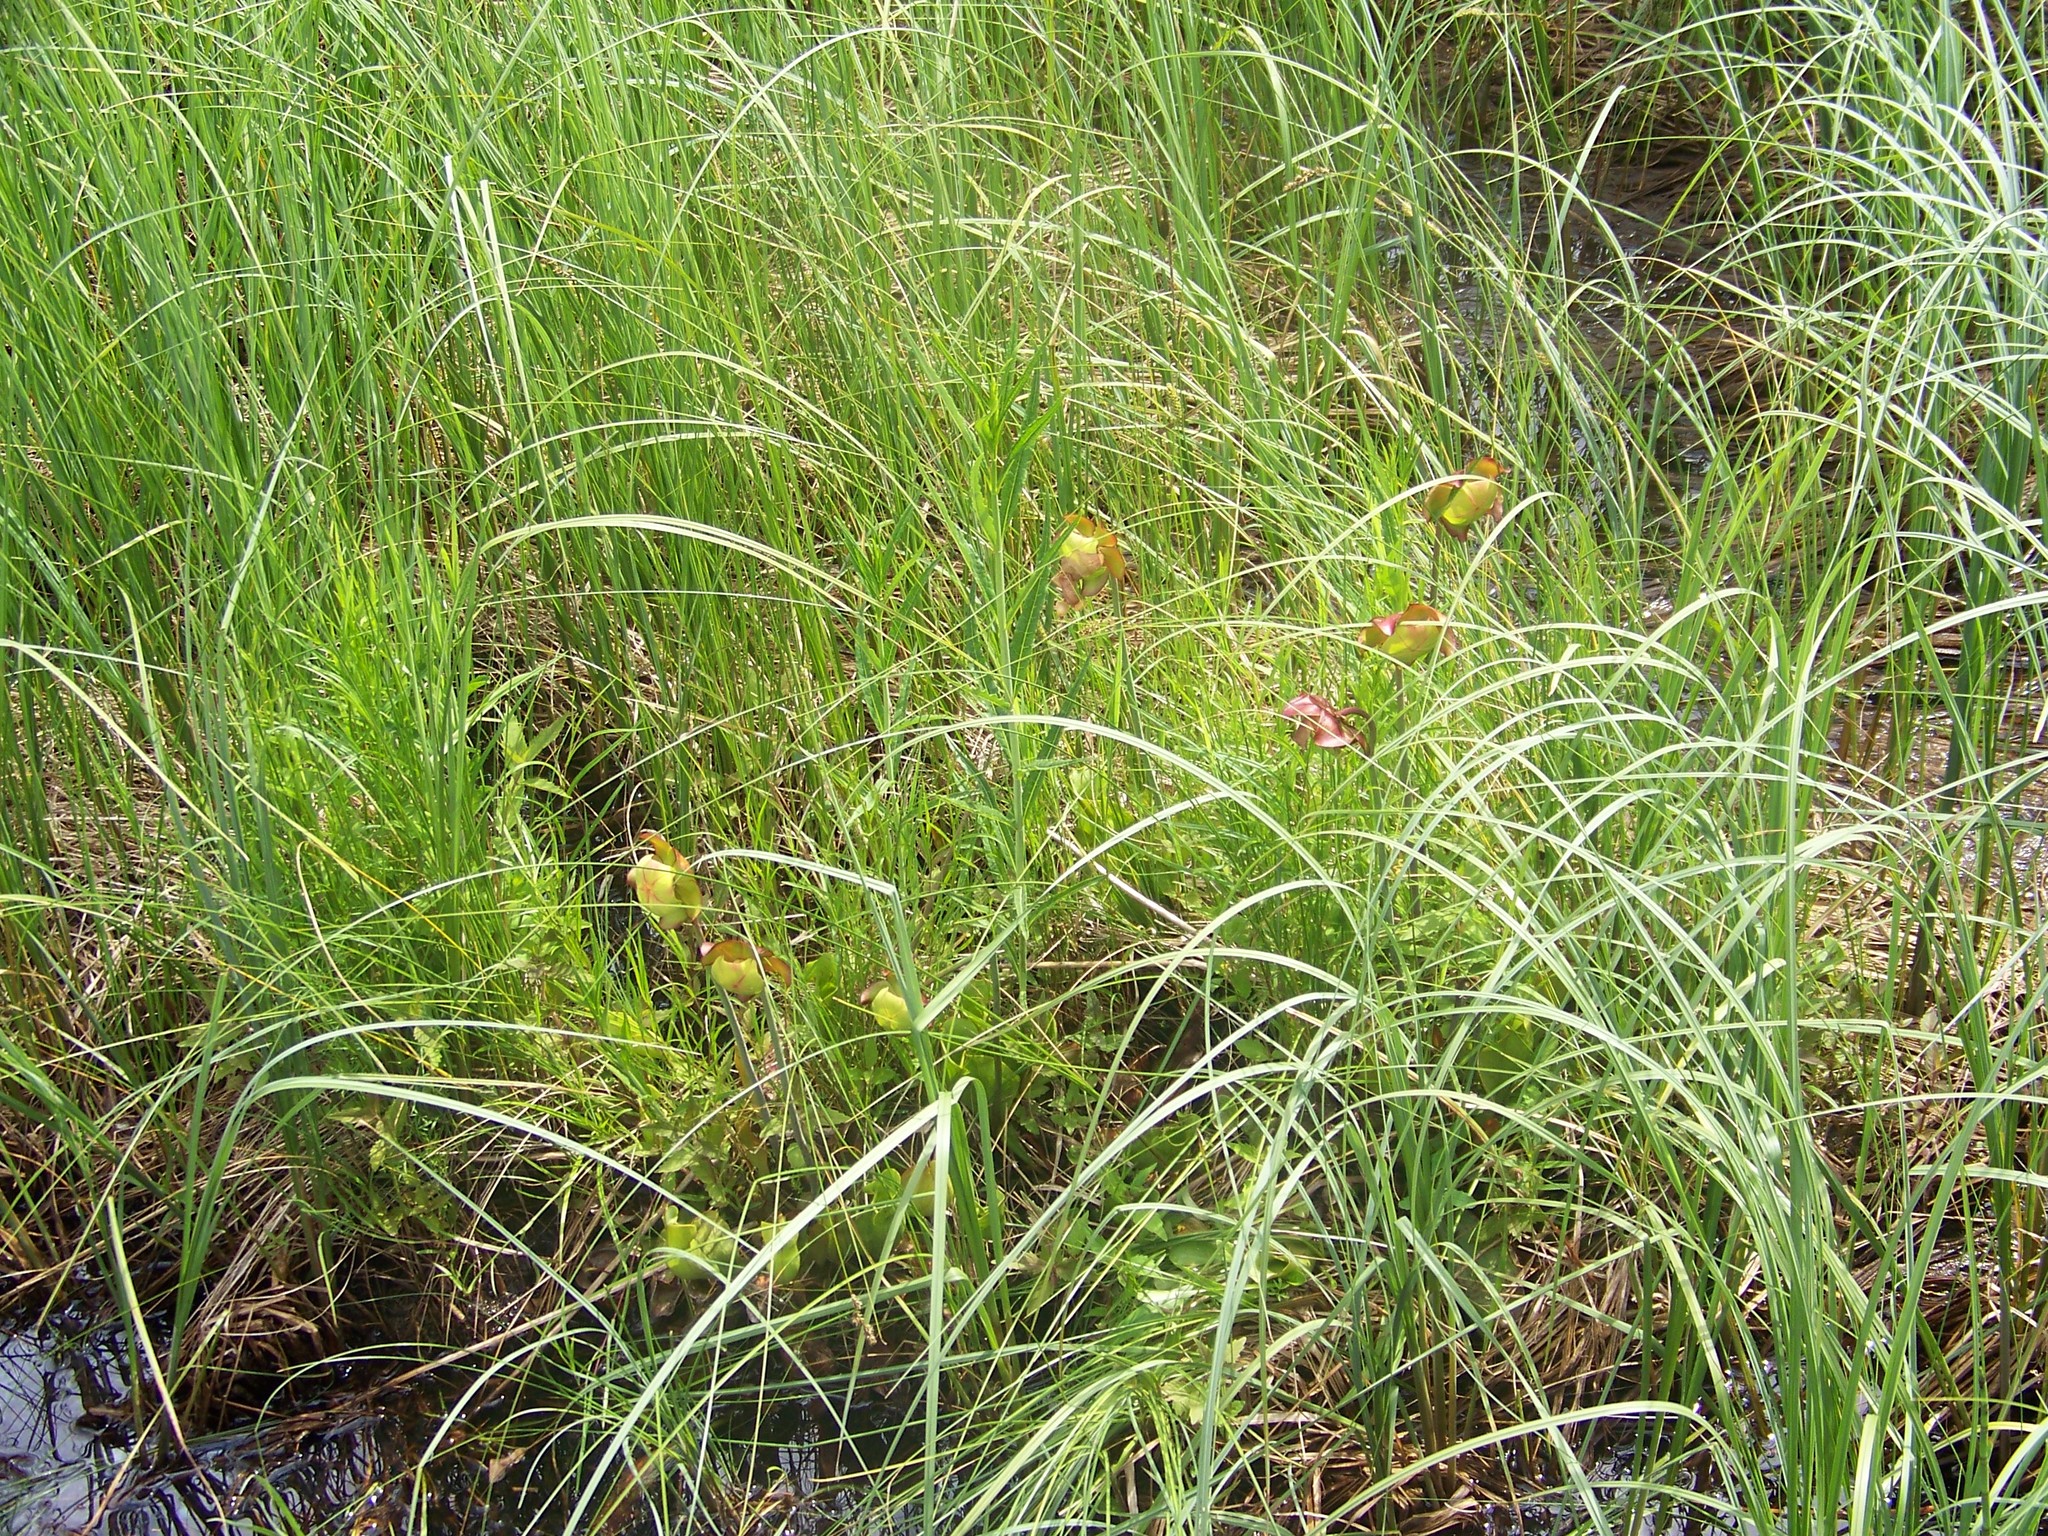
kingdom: Plantae
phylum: Tracheophyta
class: Magnoliopsida
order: Ericales
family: Sarraceniaceae
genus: Sarracenia
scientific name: Sarracenia purpurea
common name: Pitcherplant
